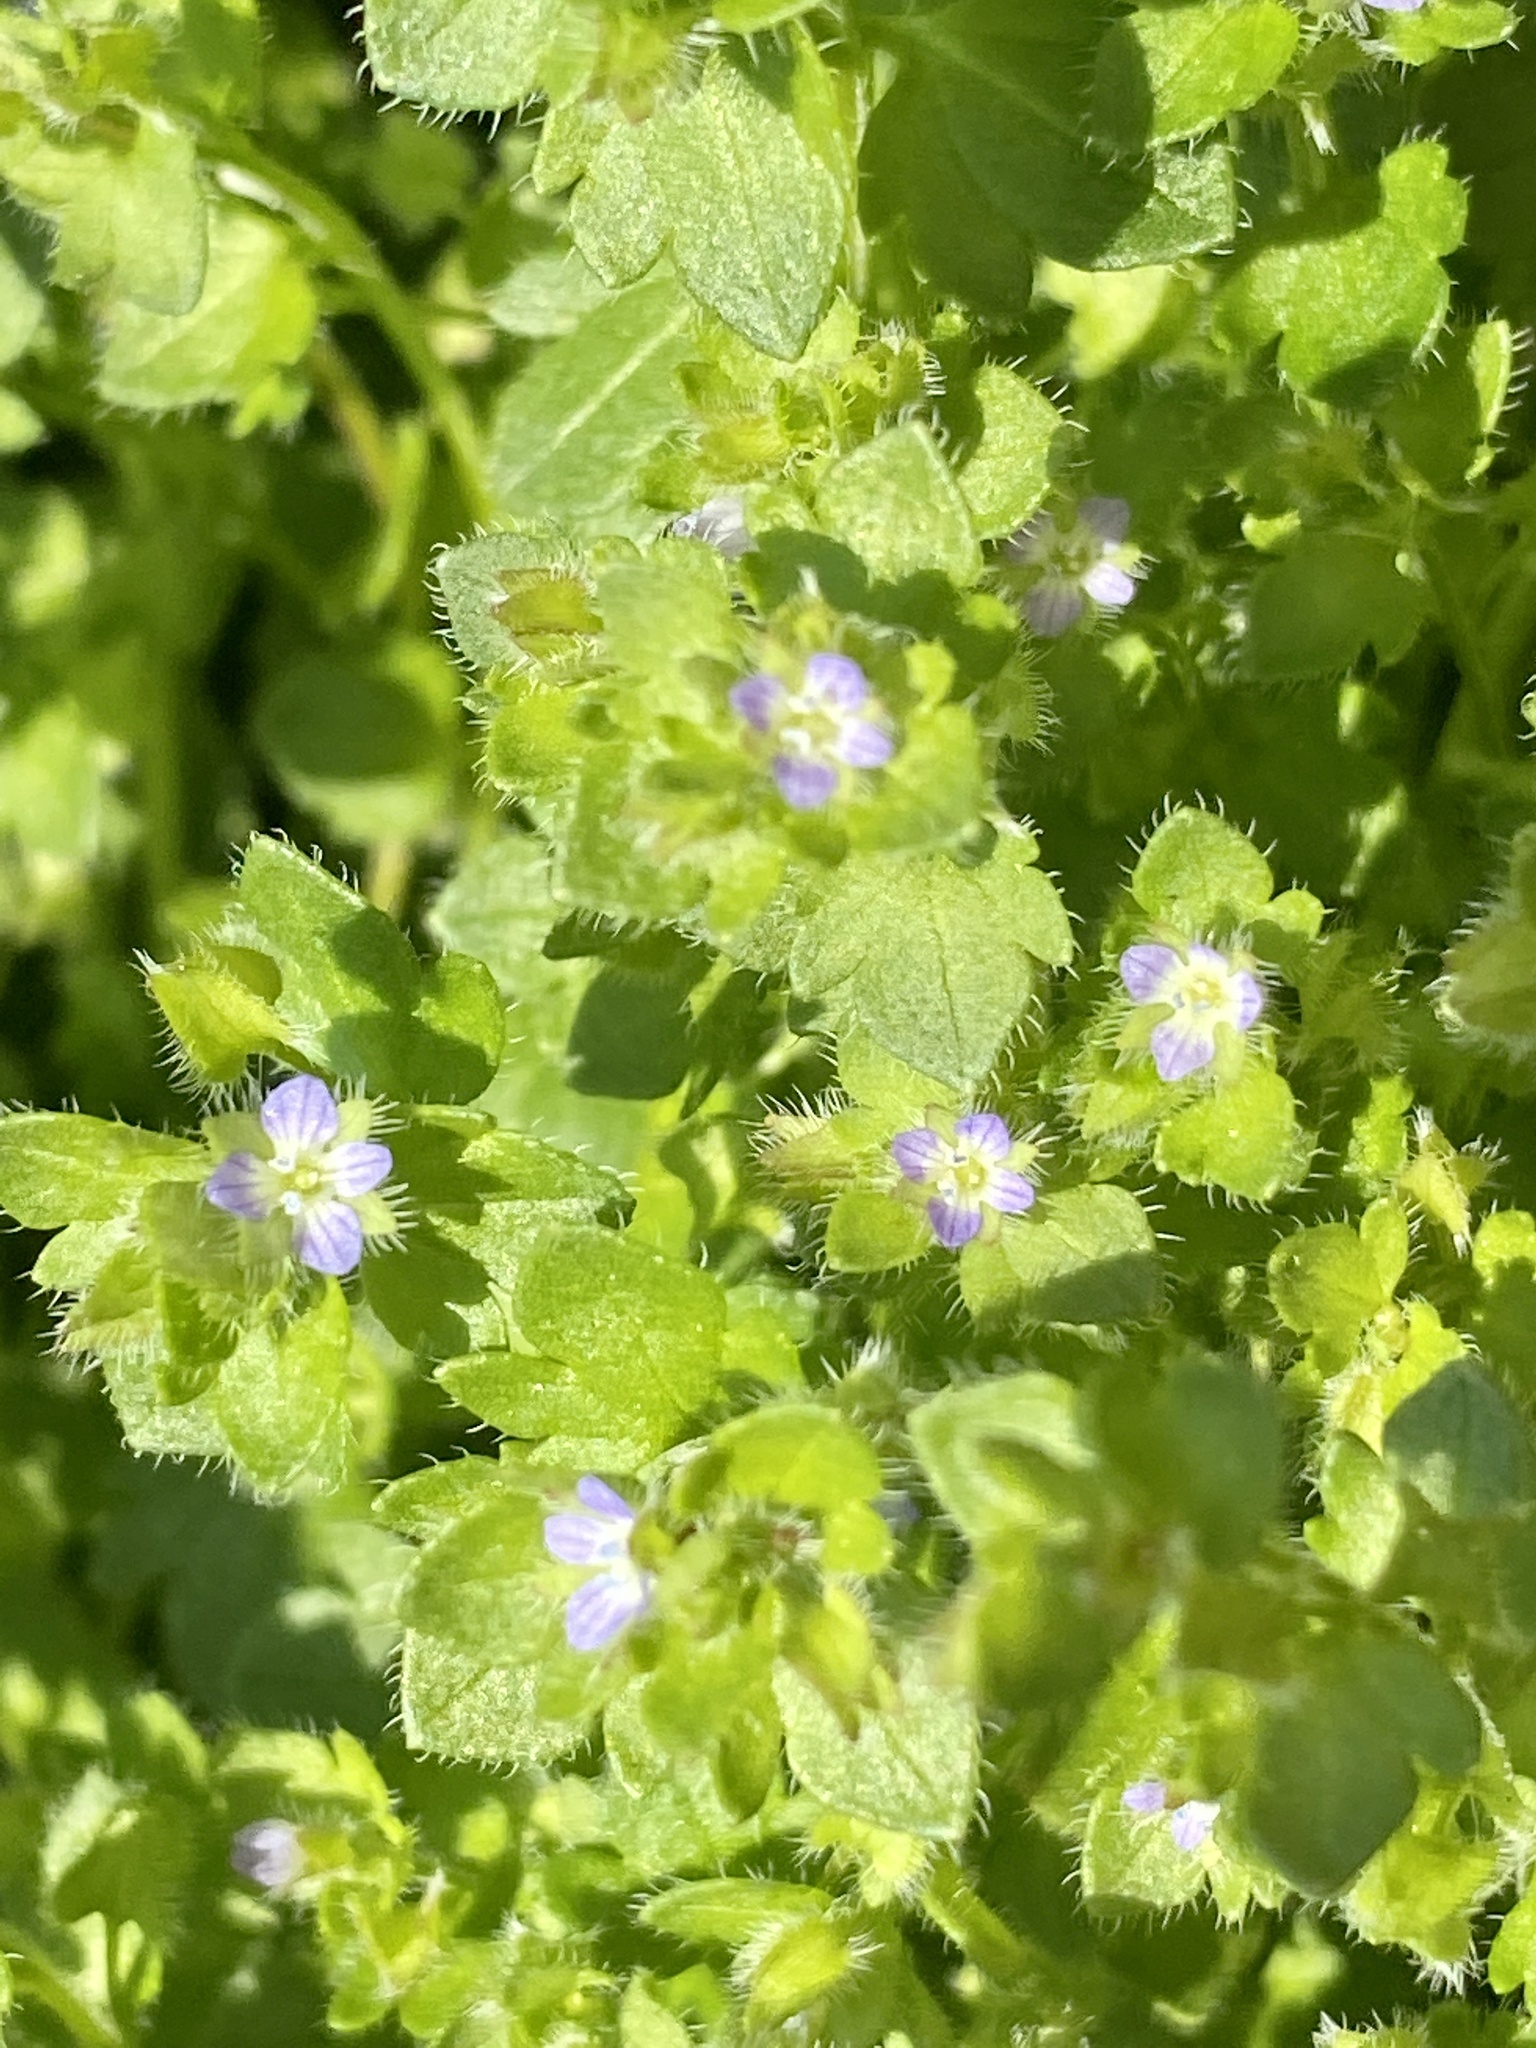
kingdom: Plantae
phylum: Tracheophyta
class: Magnoliopsida
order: Lamiales
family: Plantaginaceae
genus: Veronica
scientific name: Veronica hederifolia
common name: Ivy-leaved speedwell
